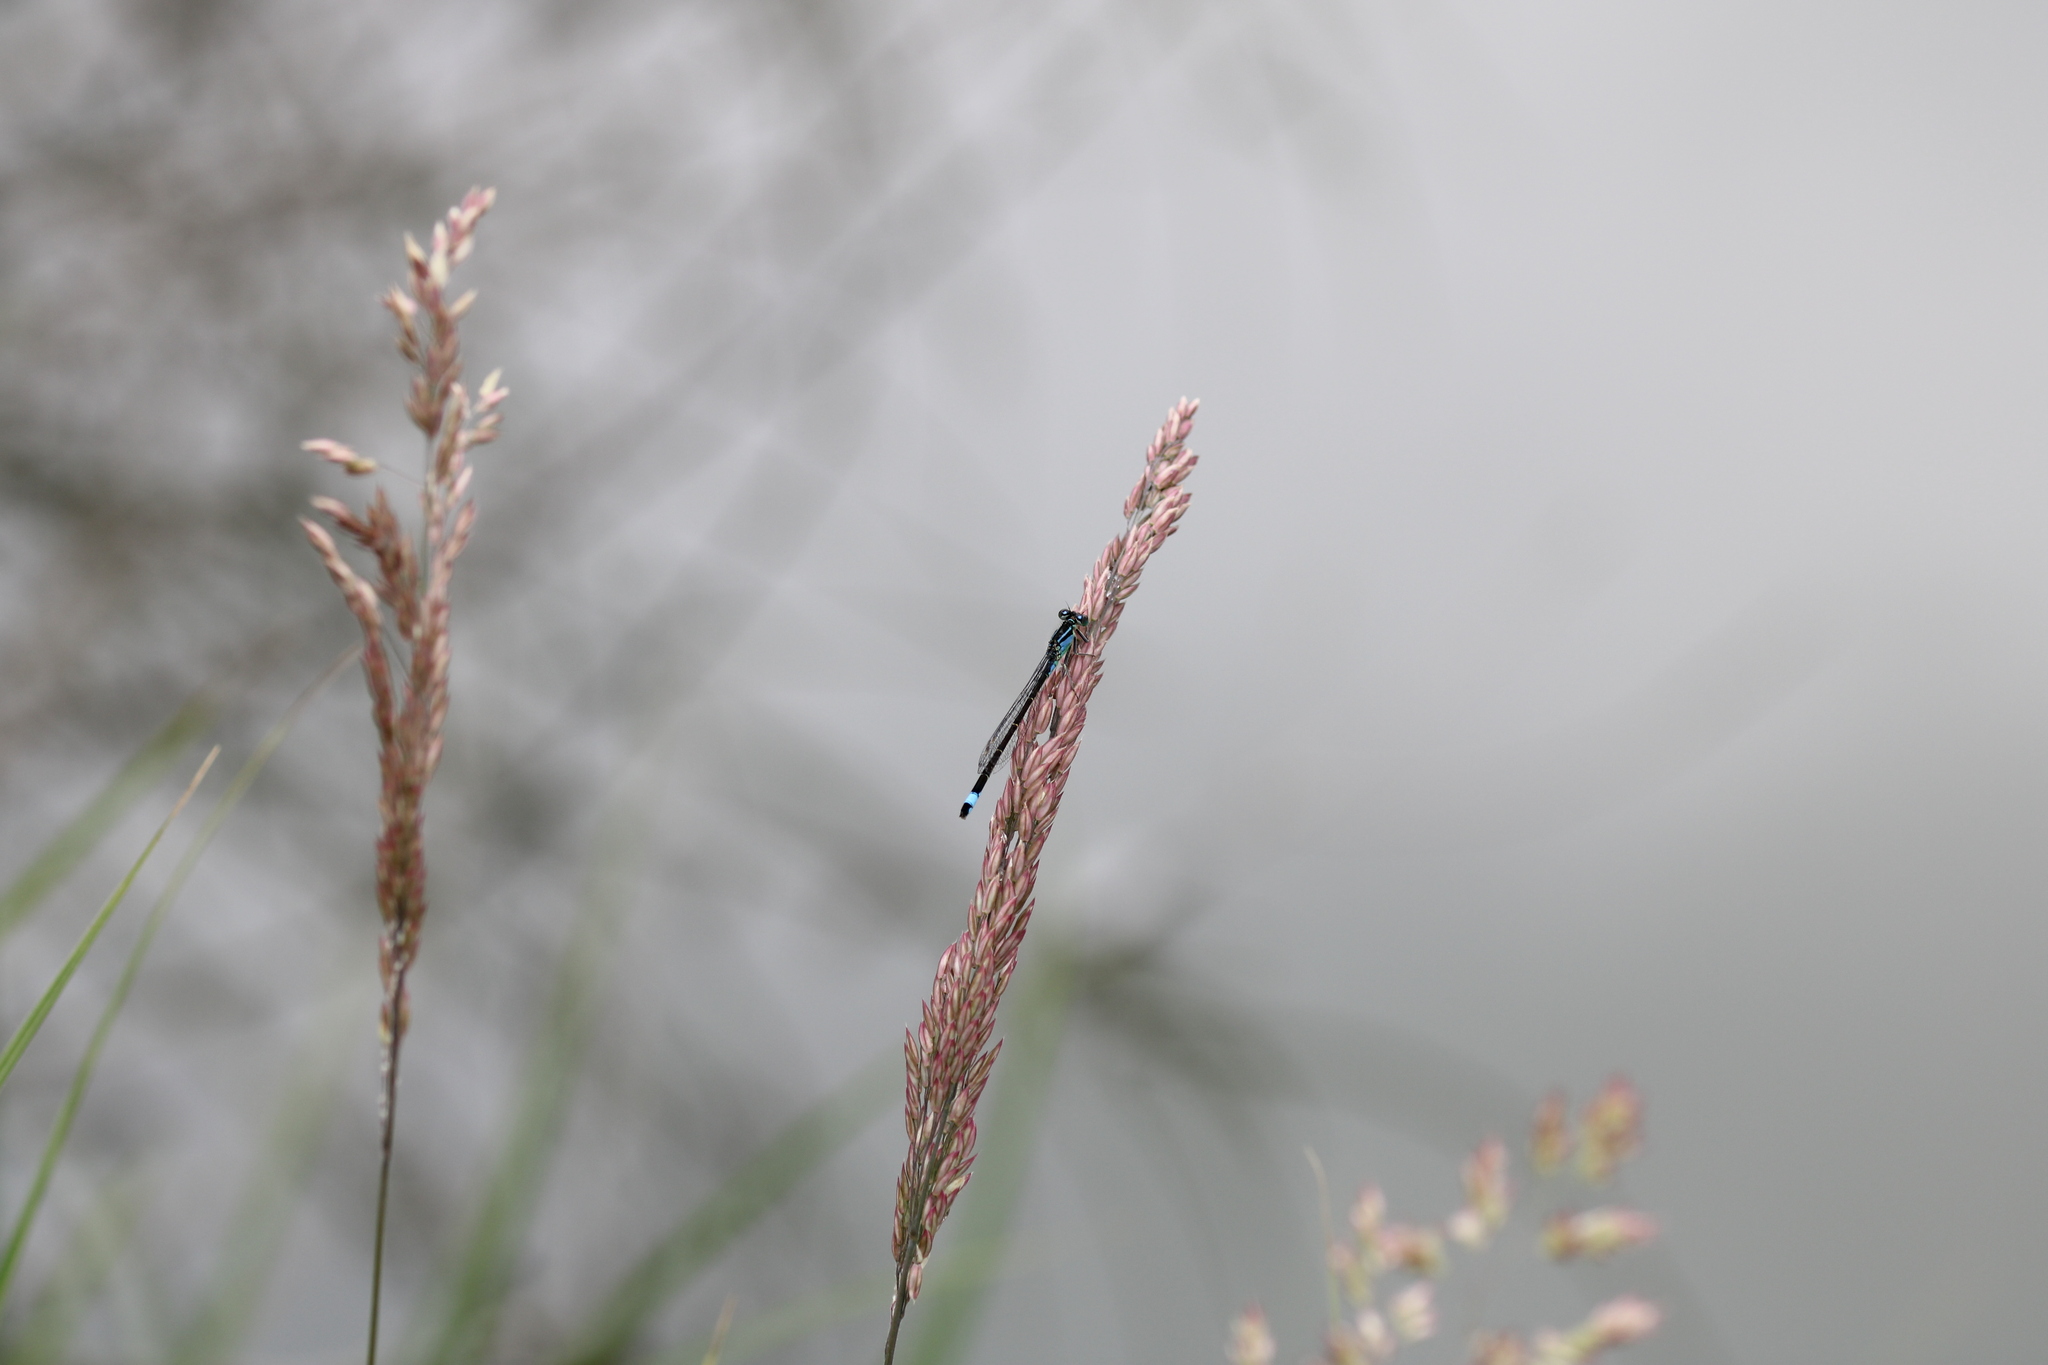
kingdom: Animalia
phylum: Arthropoda
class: Insecta
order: Odonata
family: Coenagrionidae
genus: Ischnura
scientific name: Ischnura elegans
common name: Blue-tailed damselfly
